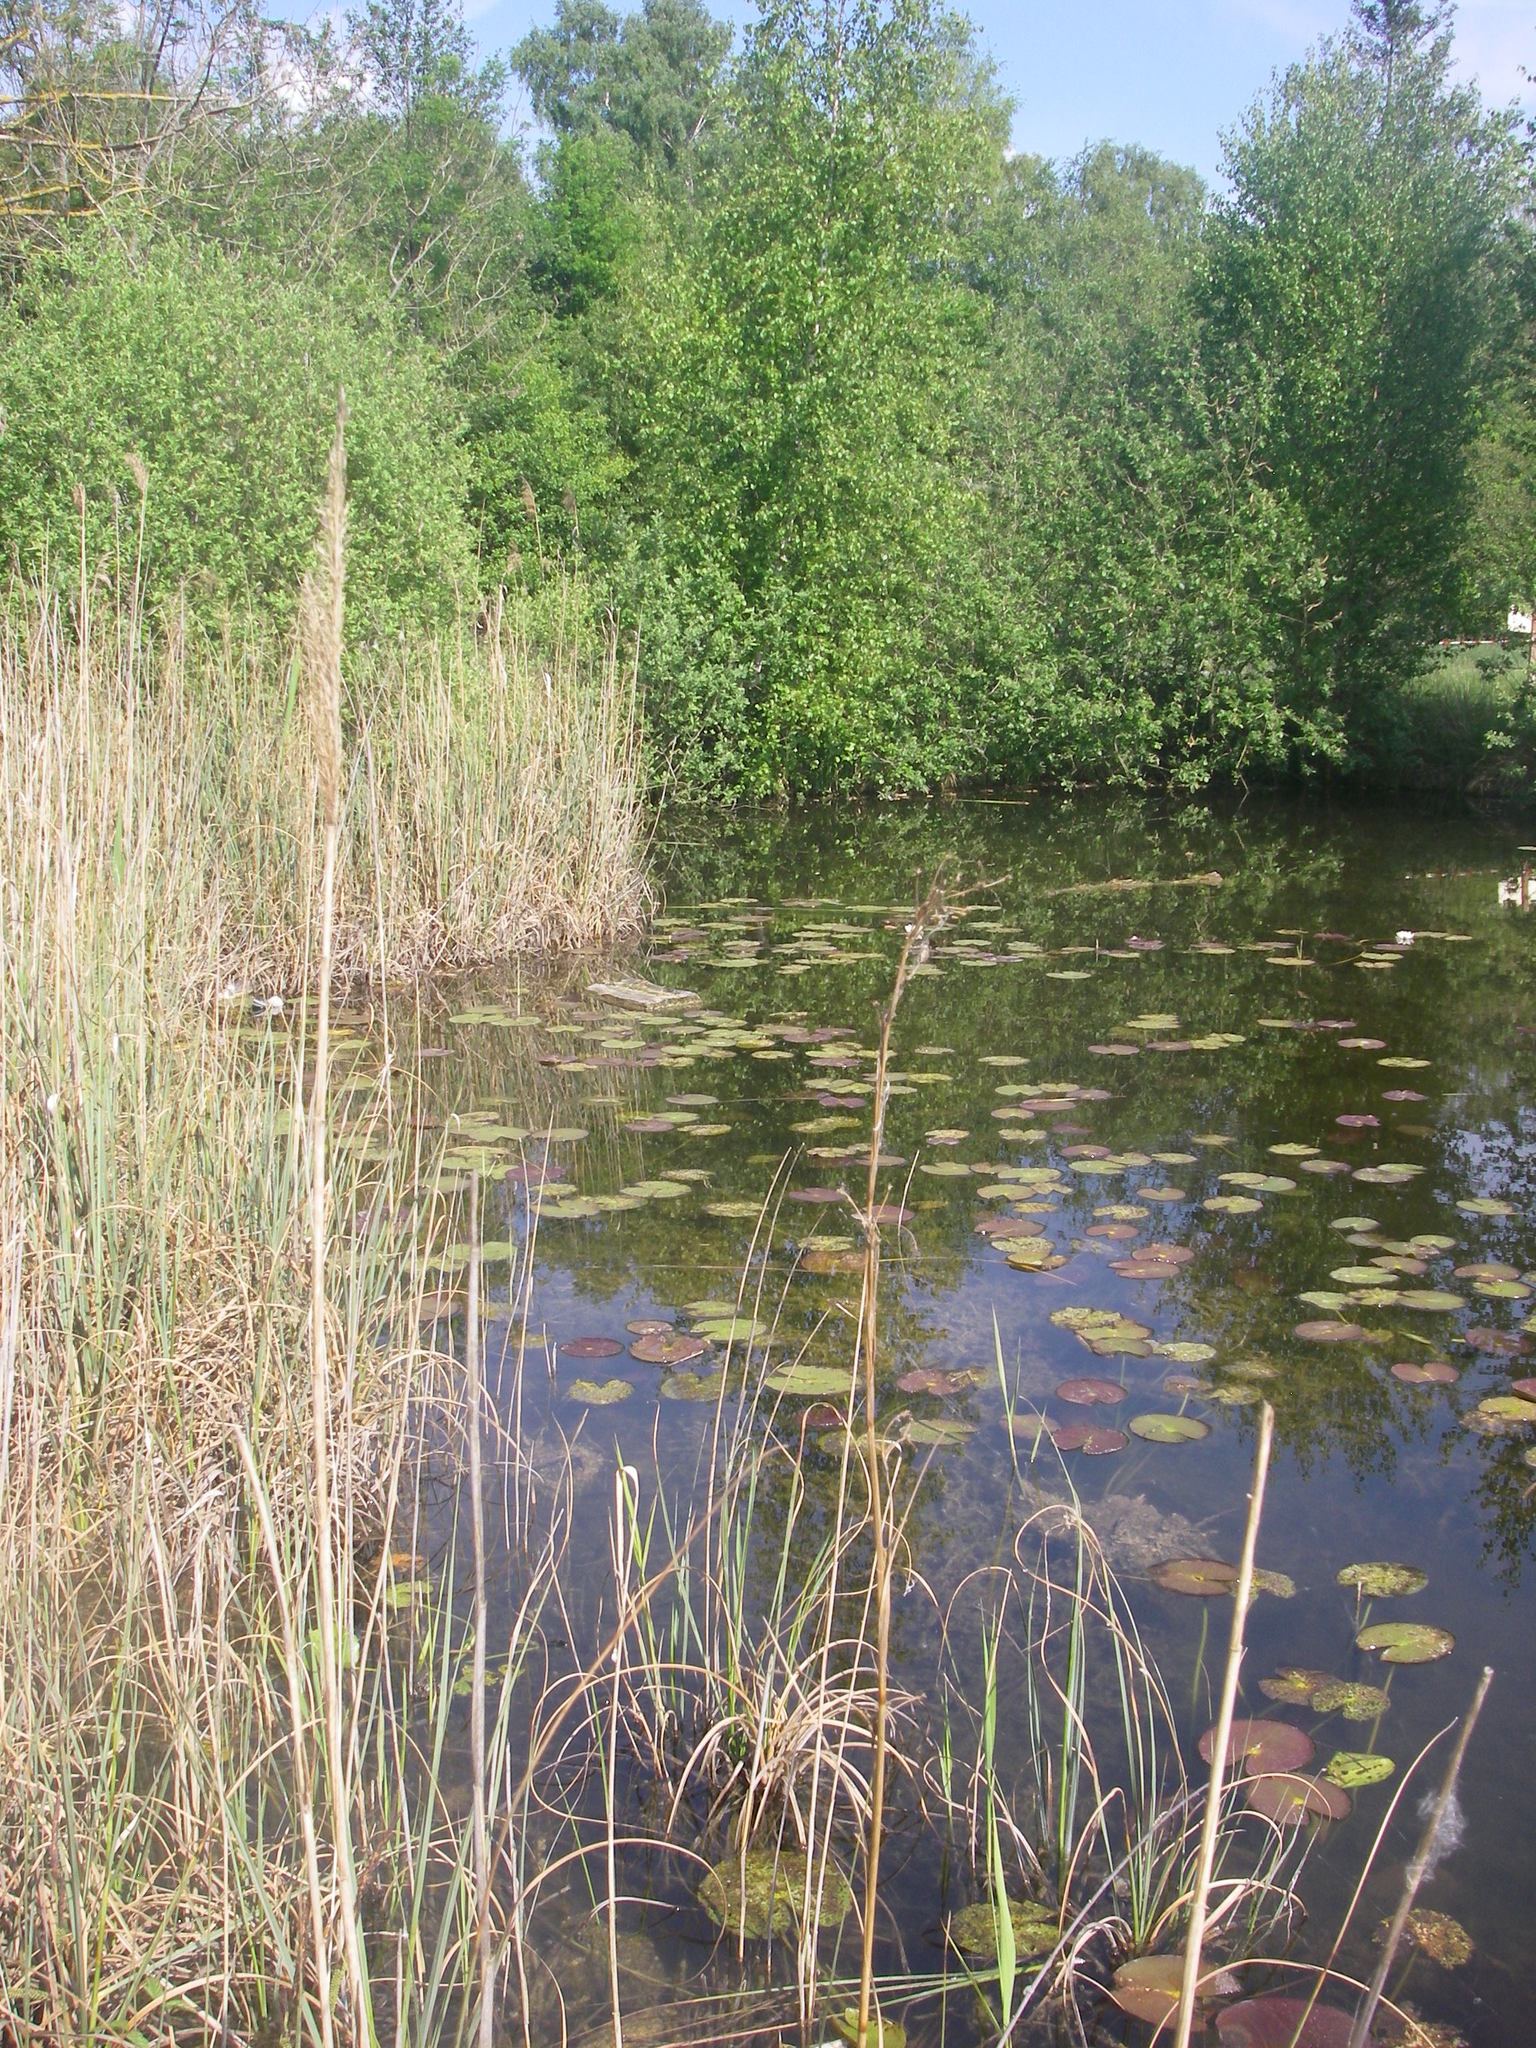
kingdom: Animalia
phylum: Arthropoda
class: Insecta
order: Odonata
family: Libellulidae
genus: Leucorrhinia
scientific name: Leucorrhinia caudalis
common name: Lilypad whiteface
